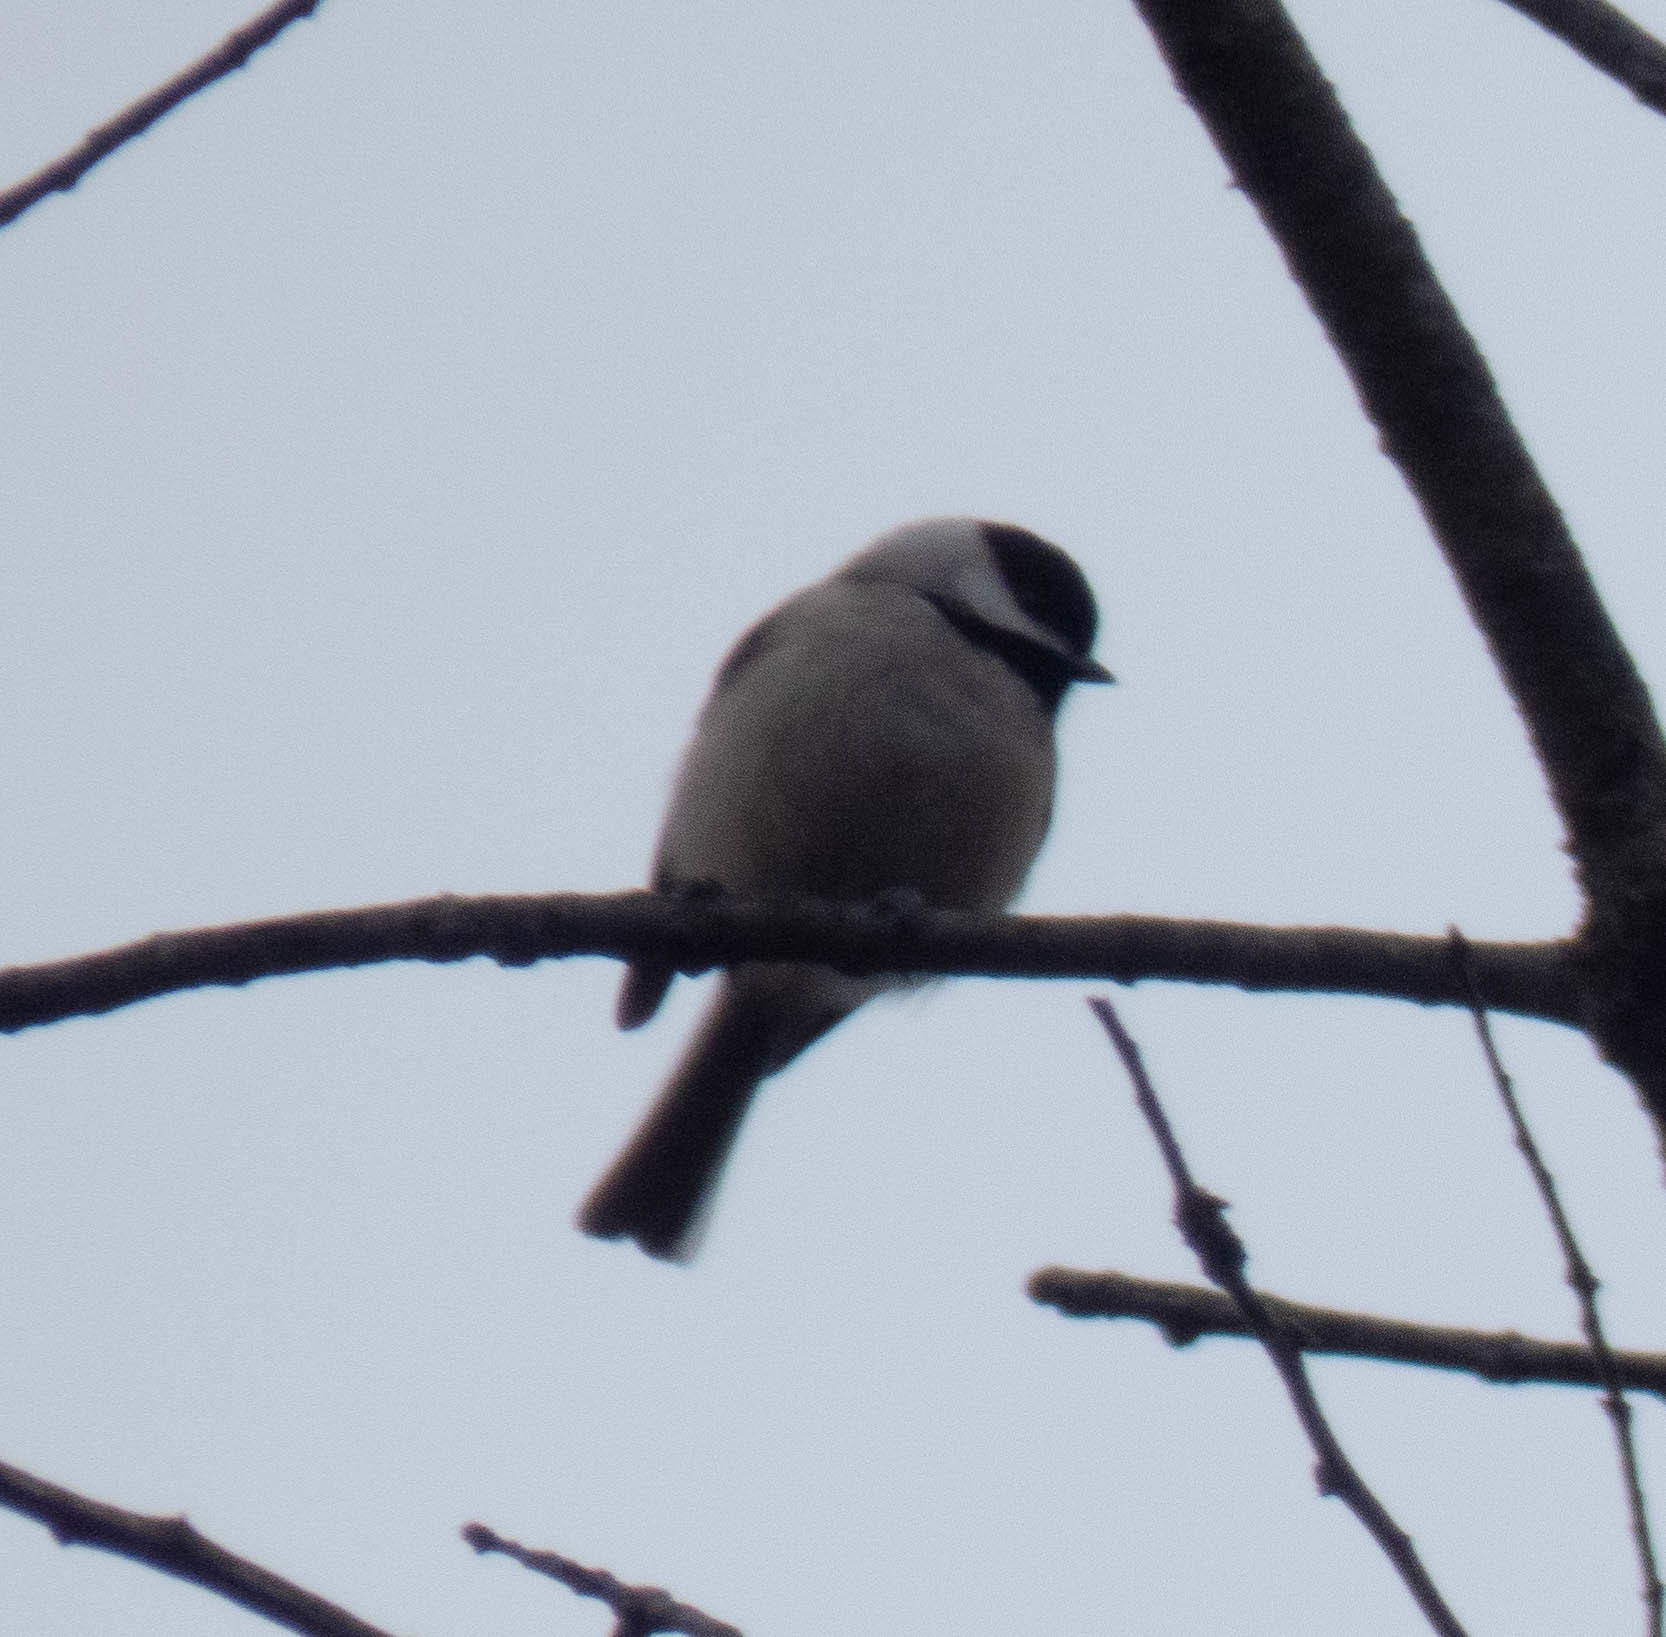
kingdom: Animalia
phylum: Chordata
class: Aves
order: Passeriformes
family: Paridae
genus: Poecile
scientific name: Poecile carolinensis
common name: Carolina chickadee
